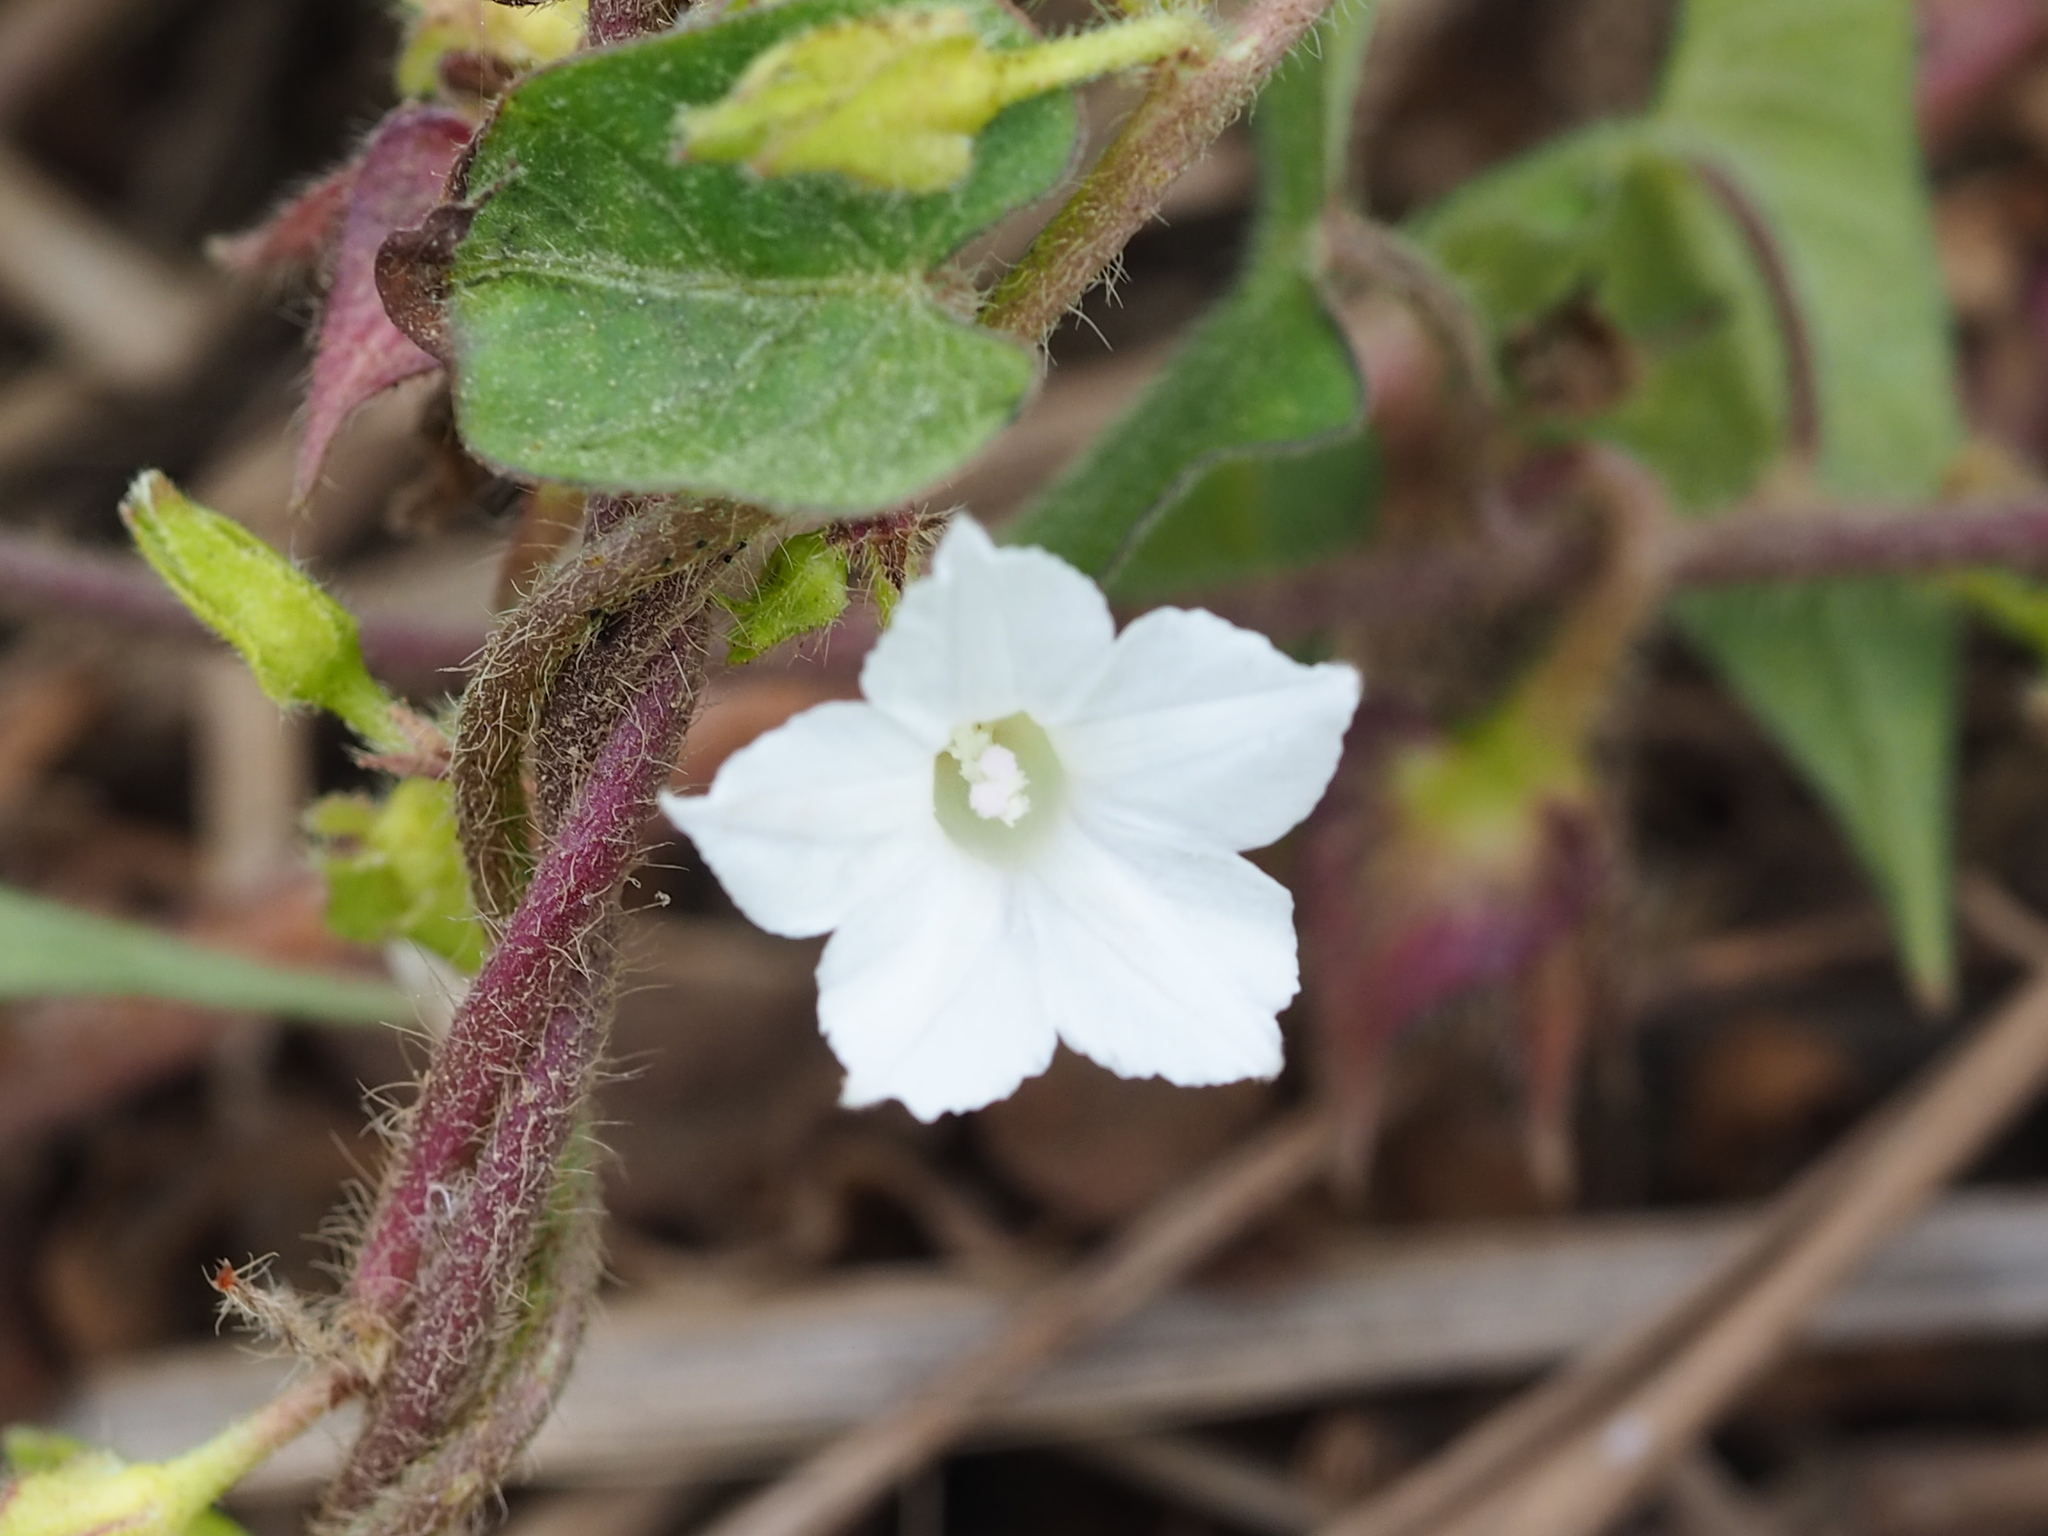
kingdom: Plantae
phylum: Tracheophyta
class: Magnoliopsida
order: Solanales
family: Convolvulaceae
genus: Ipomoea
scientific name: Ipomoea biflora
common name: Bellvine
